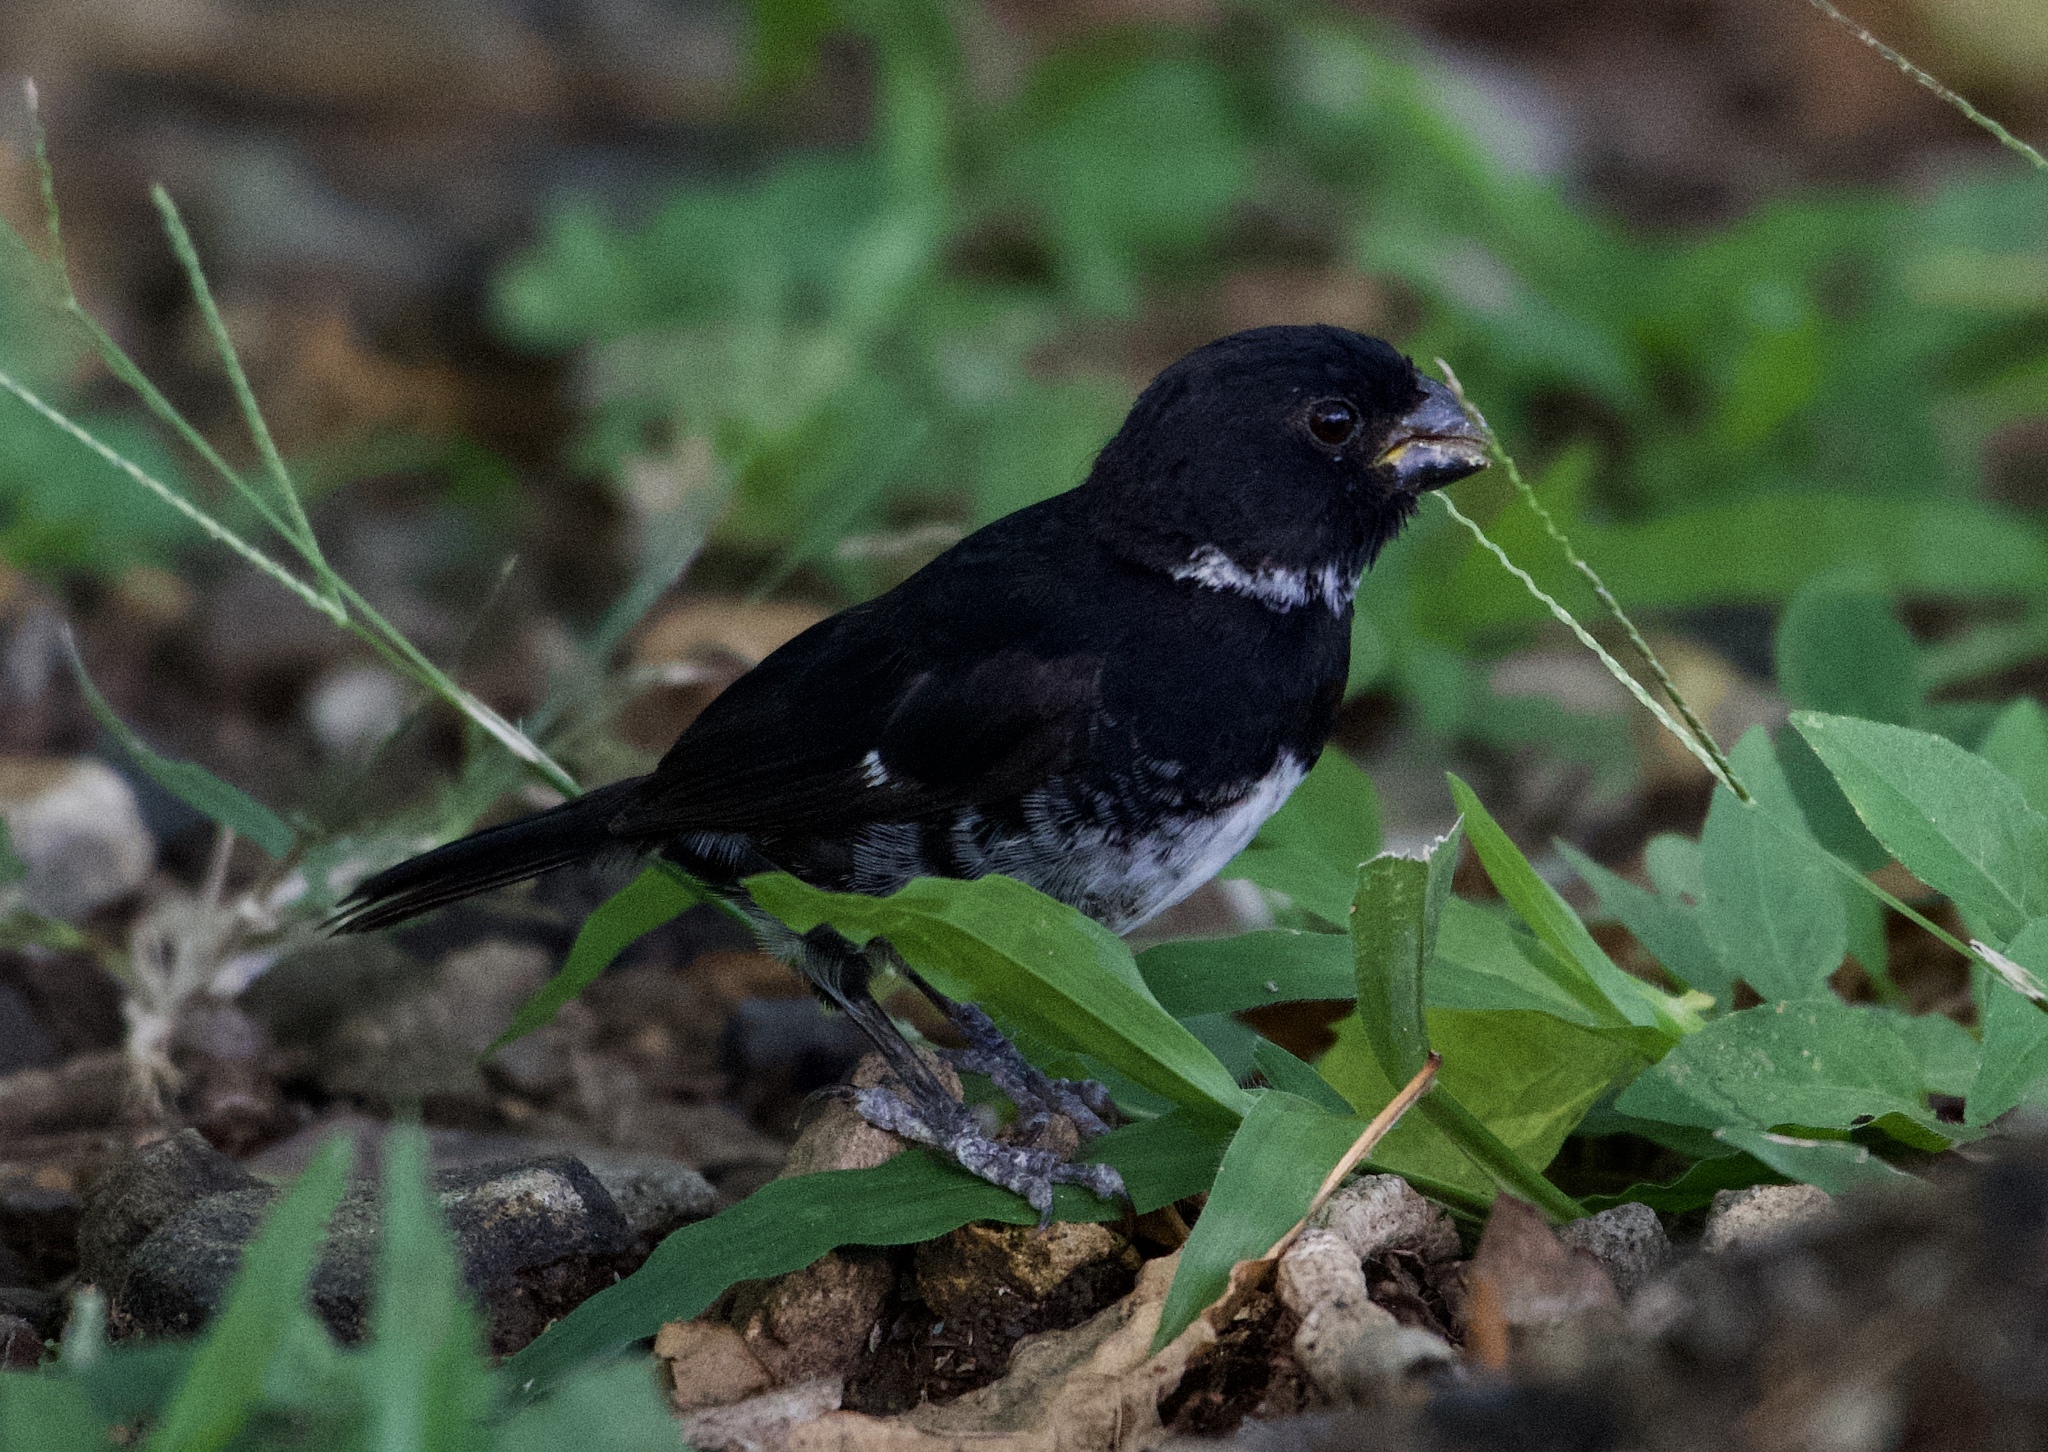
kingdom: Animalia
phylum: Chordata
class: Aves
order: Passeriformes
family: Thraupidae
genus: Sporophila
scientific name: Sporophila corvina
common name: Variable seedeater
